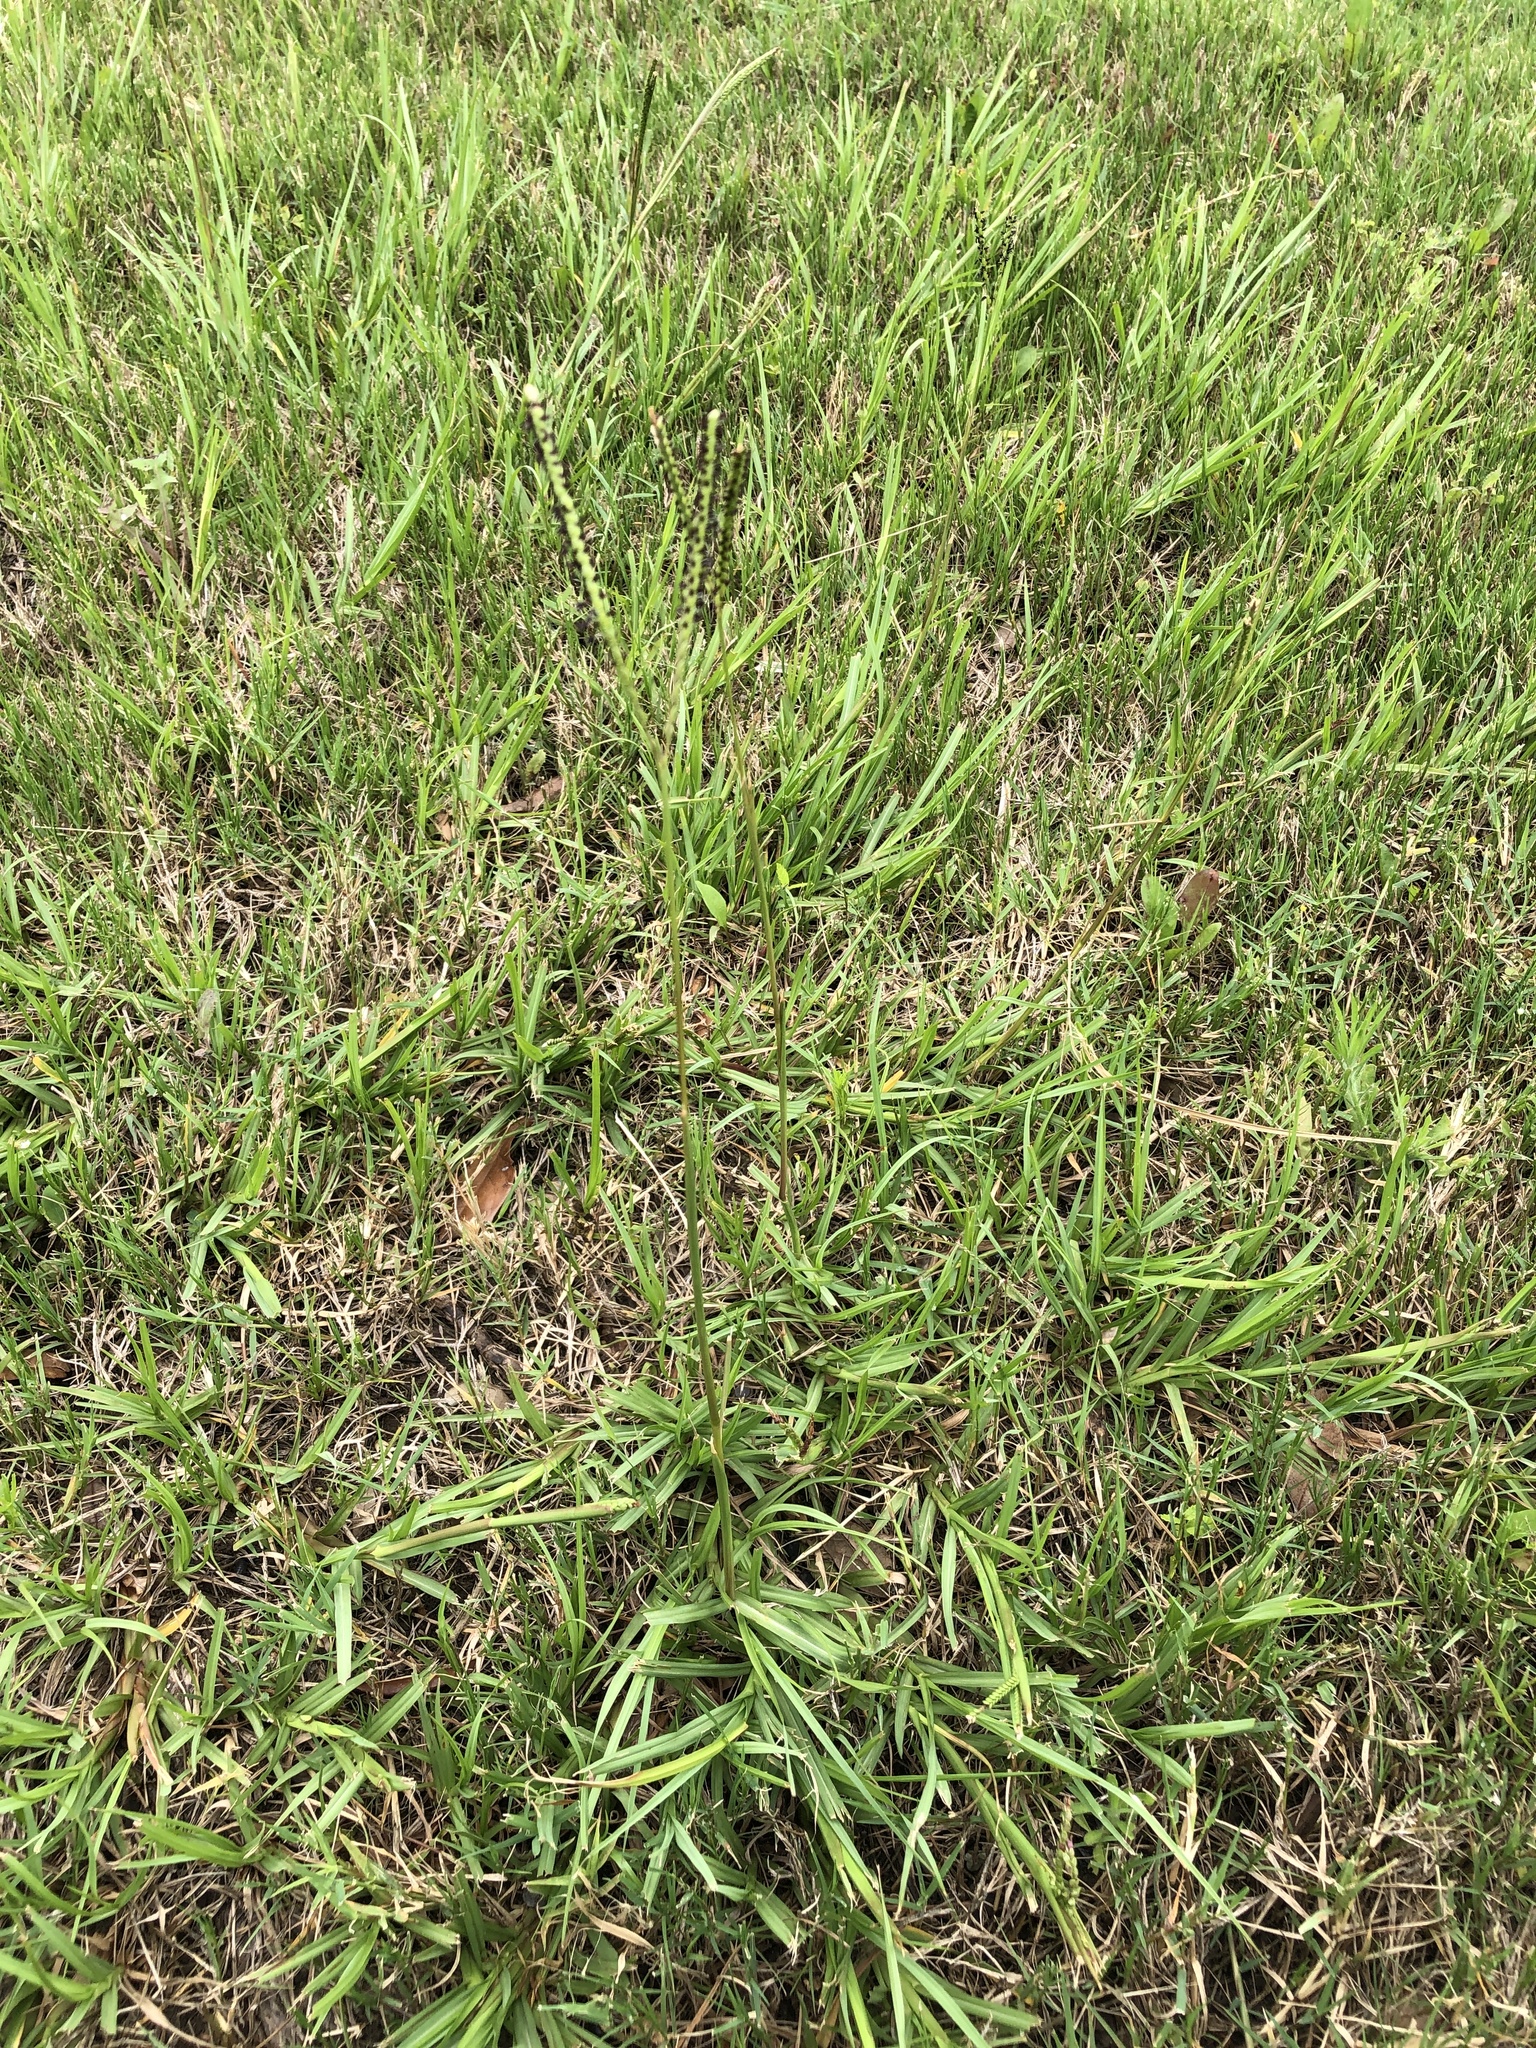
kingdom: Plantae
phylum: Tracheophyta
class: Liliopsida
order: Poales
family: Poaceae
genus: Paspalum
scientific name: Paspalum notatum
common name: Bahiagrass
